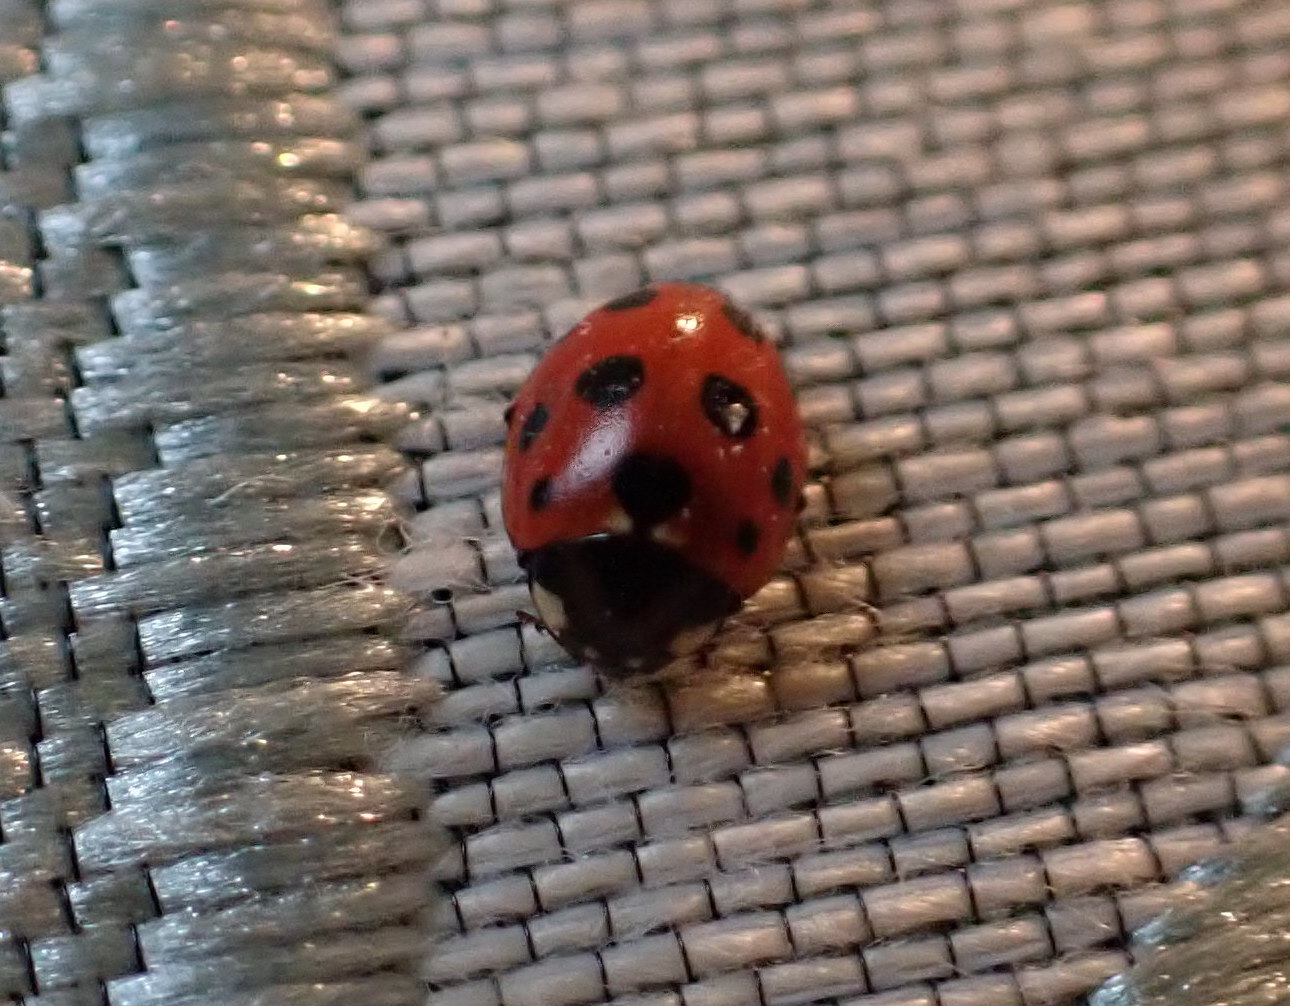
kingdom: Animalia
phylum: Arthropoda
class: Insecta
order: Coleoptera
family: Coccinellidae
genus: Coccinella
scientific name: Coccinella undecimpunctata
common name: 11-spot ladybird
